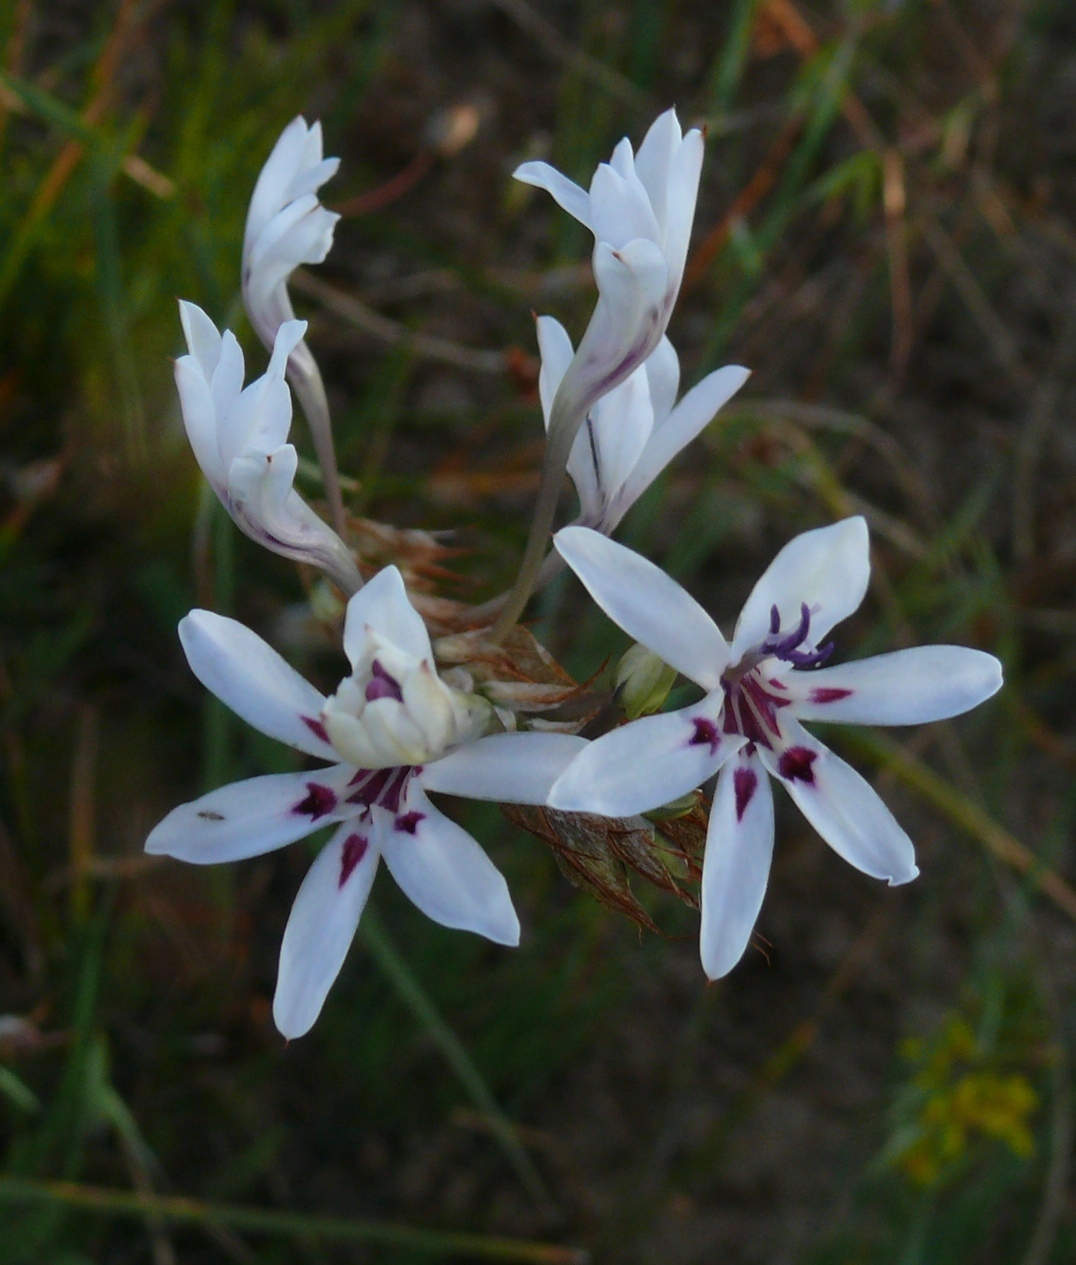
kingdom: Plantae
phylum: Tracheophyta
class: Liliopsida
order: Asparagales
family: Iridaceae
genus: Babiana
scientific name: Babiana spathacea
